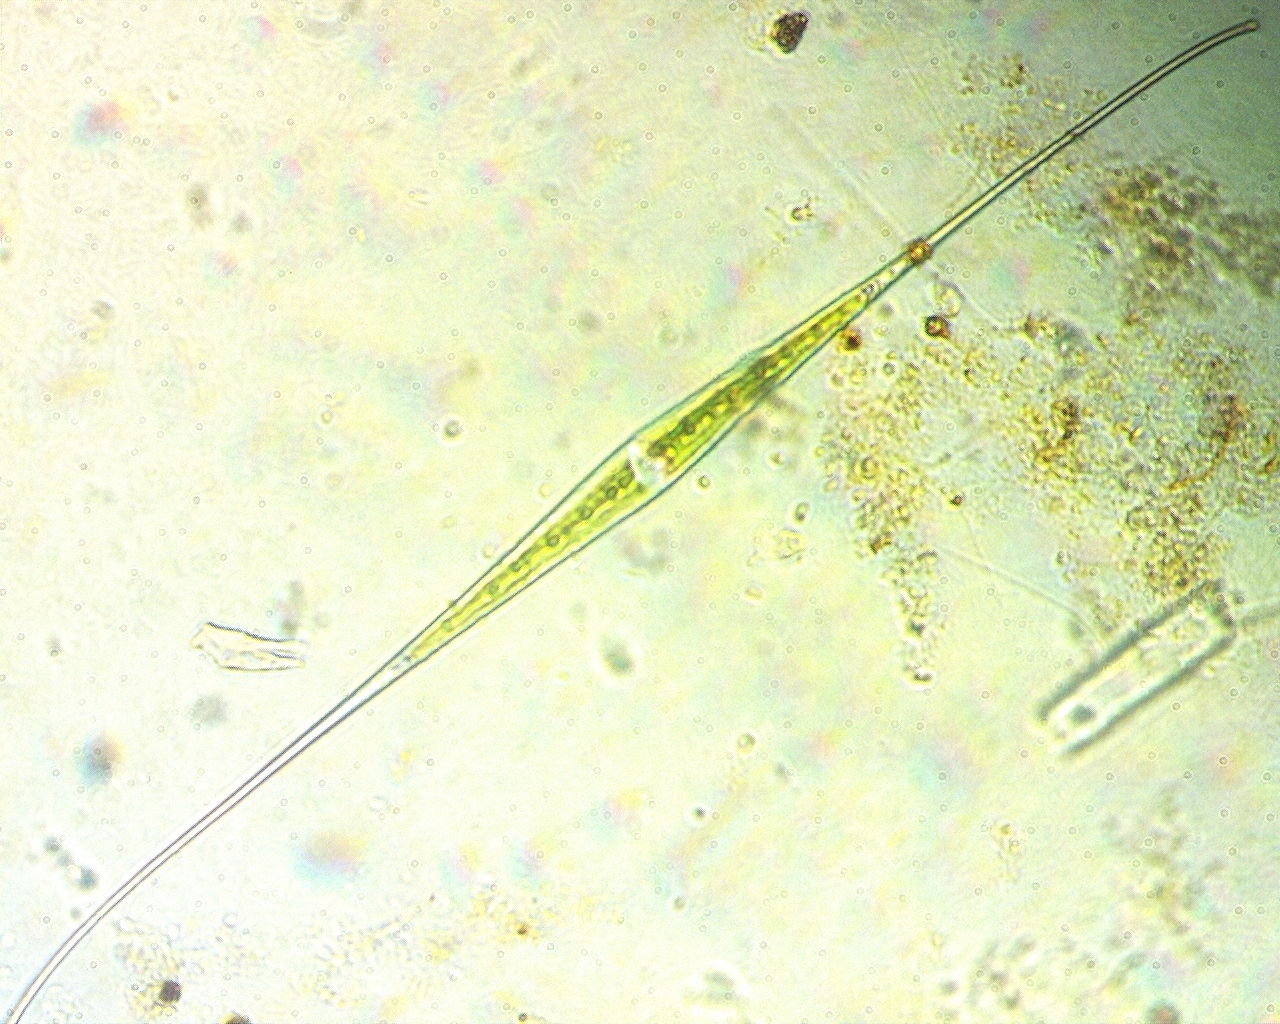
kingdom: Plantae
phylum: Charophyta
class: Zygnematophyceae
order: Zygnematales
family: Closteriaceae
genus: Closterium
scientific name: Closterium kuetzingii
